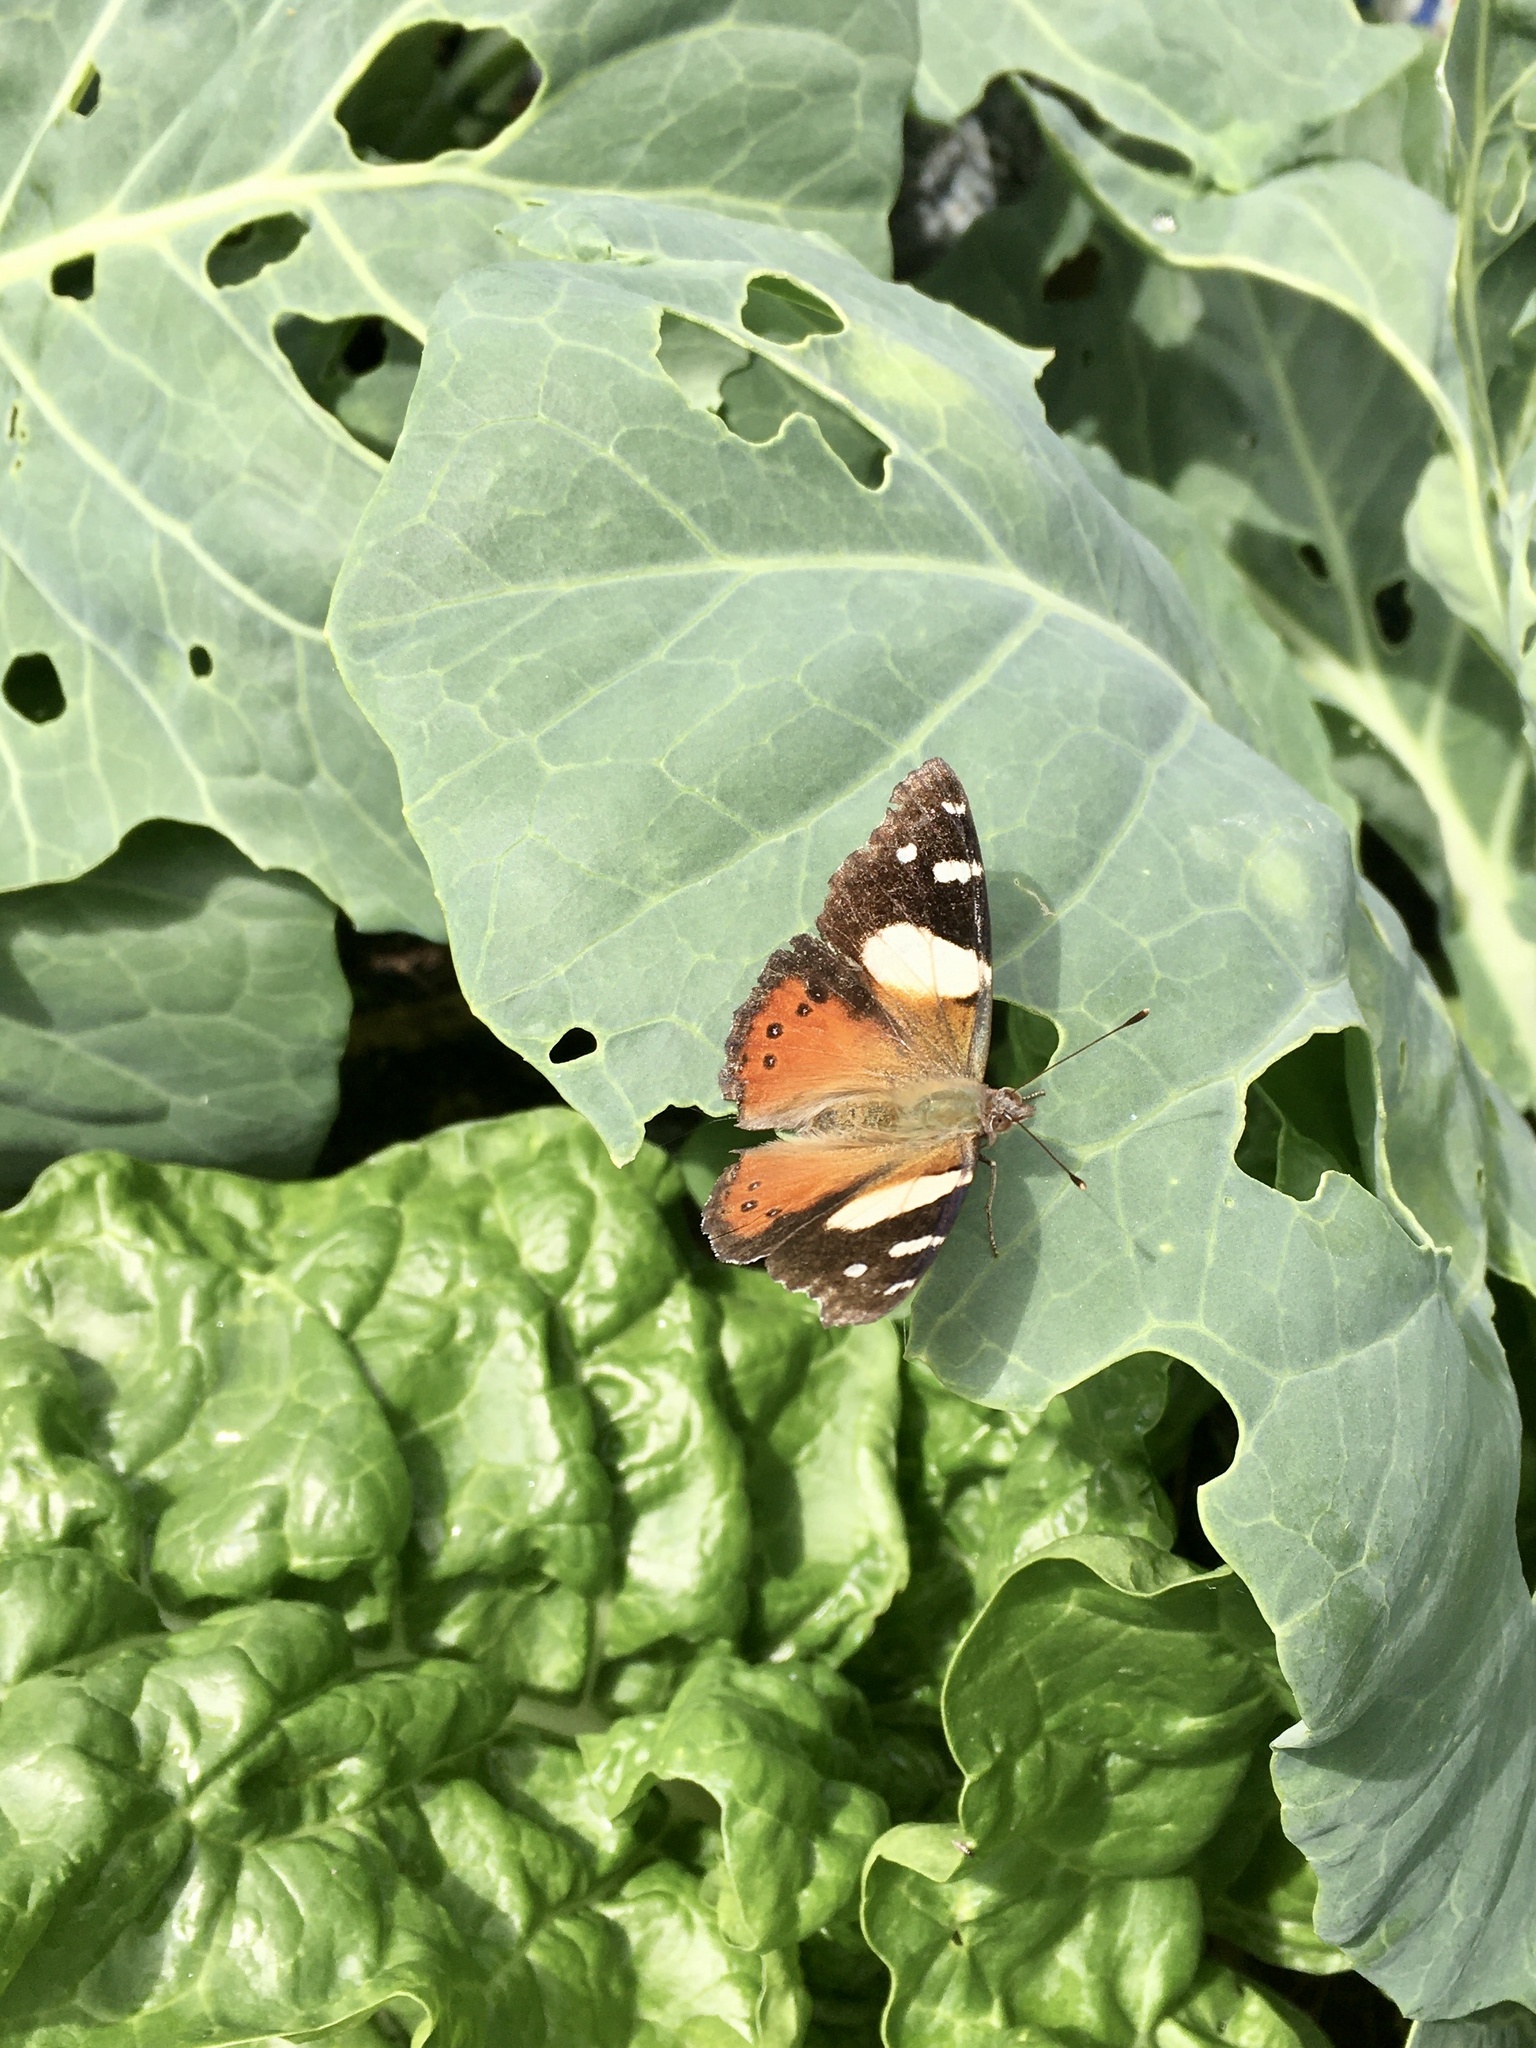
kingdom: Animalia
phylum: Arthropoda
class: Insecta
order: Lepidoptera
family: Nymphalidae
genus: Vanessa
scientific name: Vanessa itea
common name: Yellow admiral
